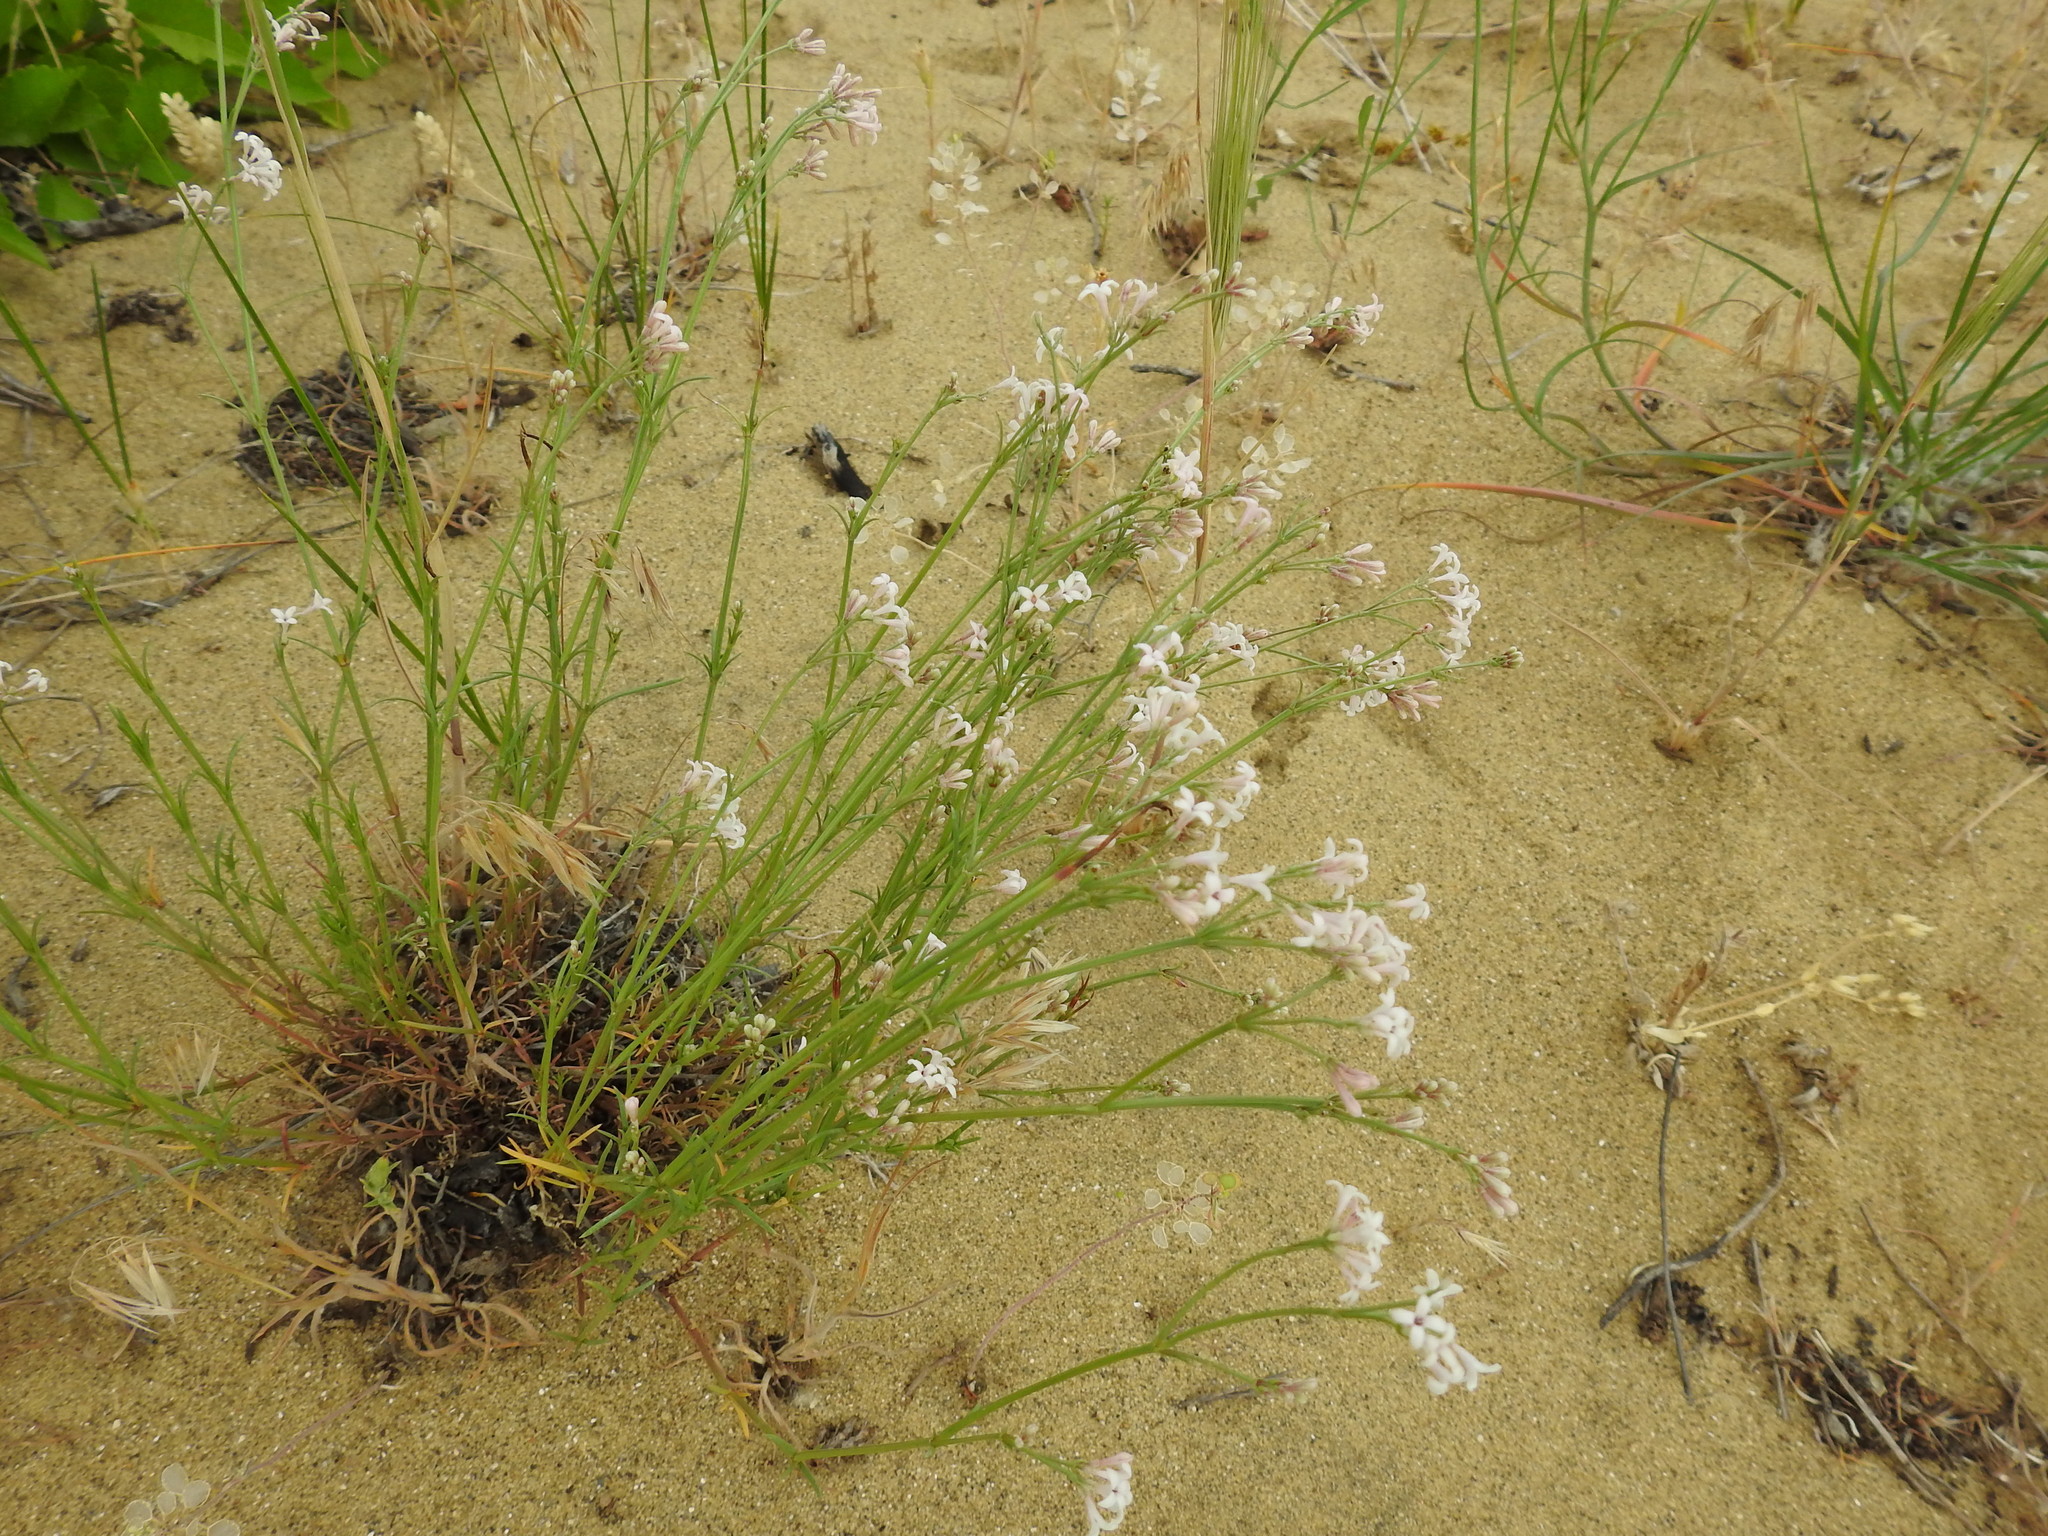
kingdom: Plantae
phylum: Tracheophyta
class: Magnoliopsida
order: Gentianales
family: Rubiaceae
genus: Cynanchica
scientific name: Cynanchica diminuta
